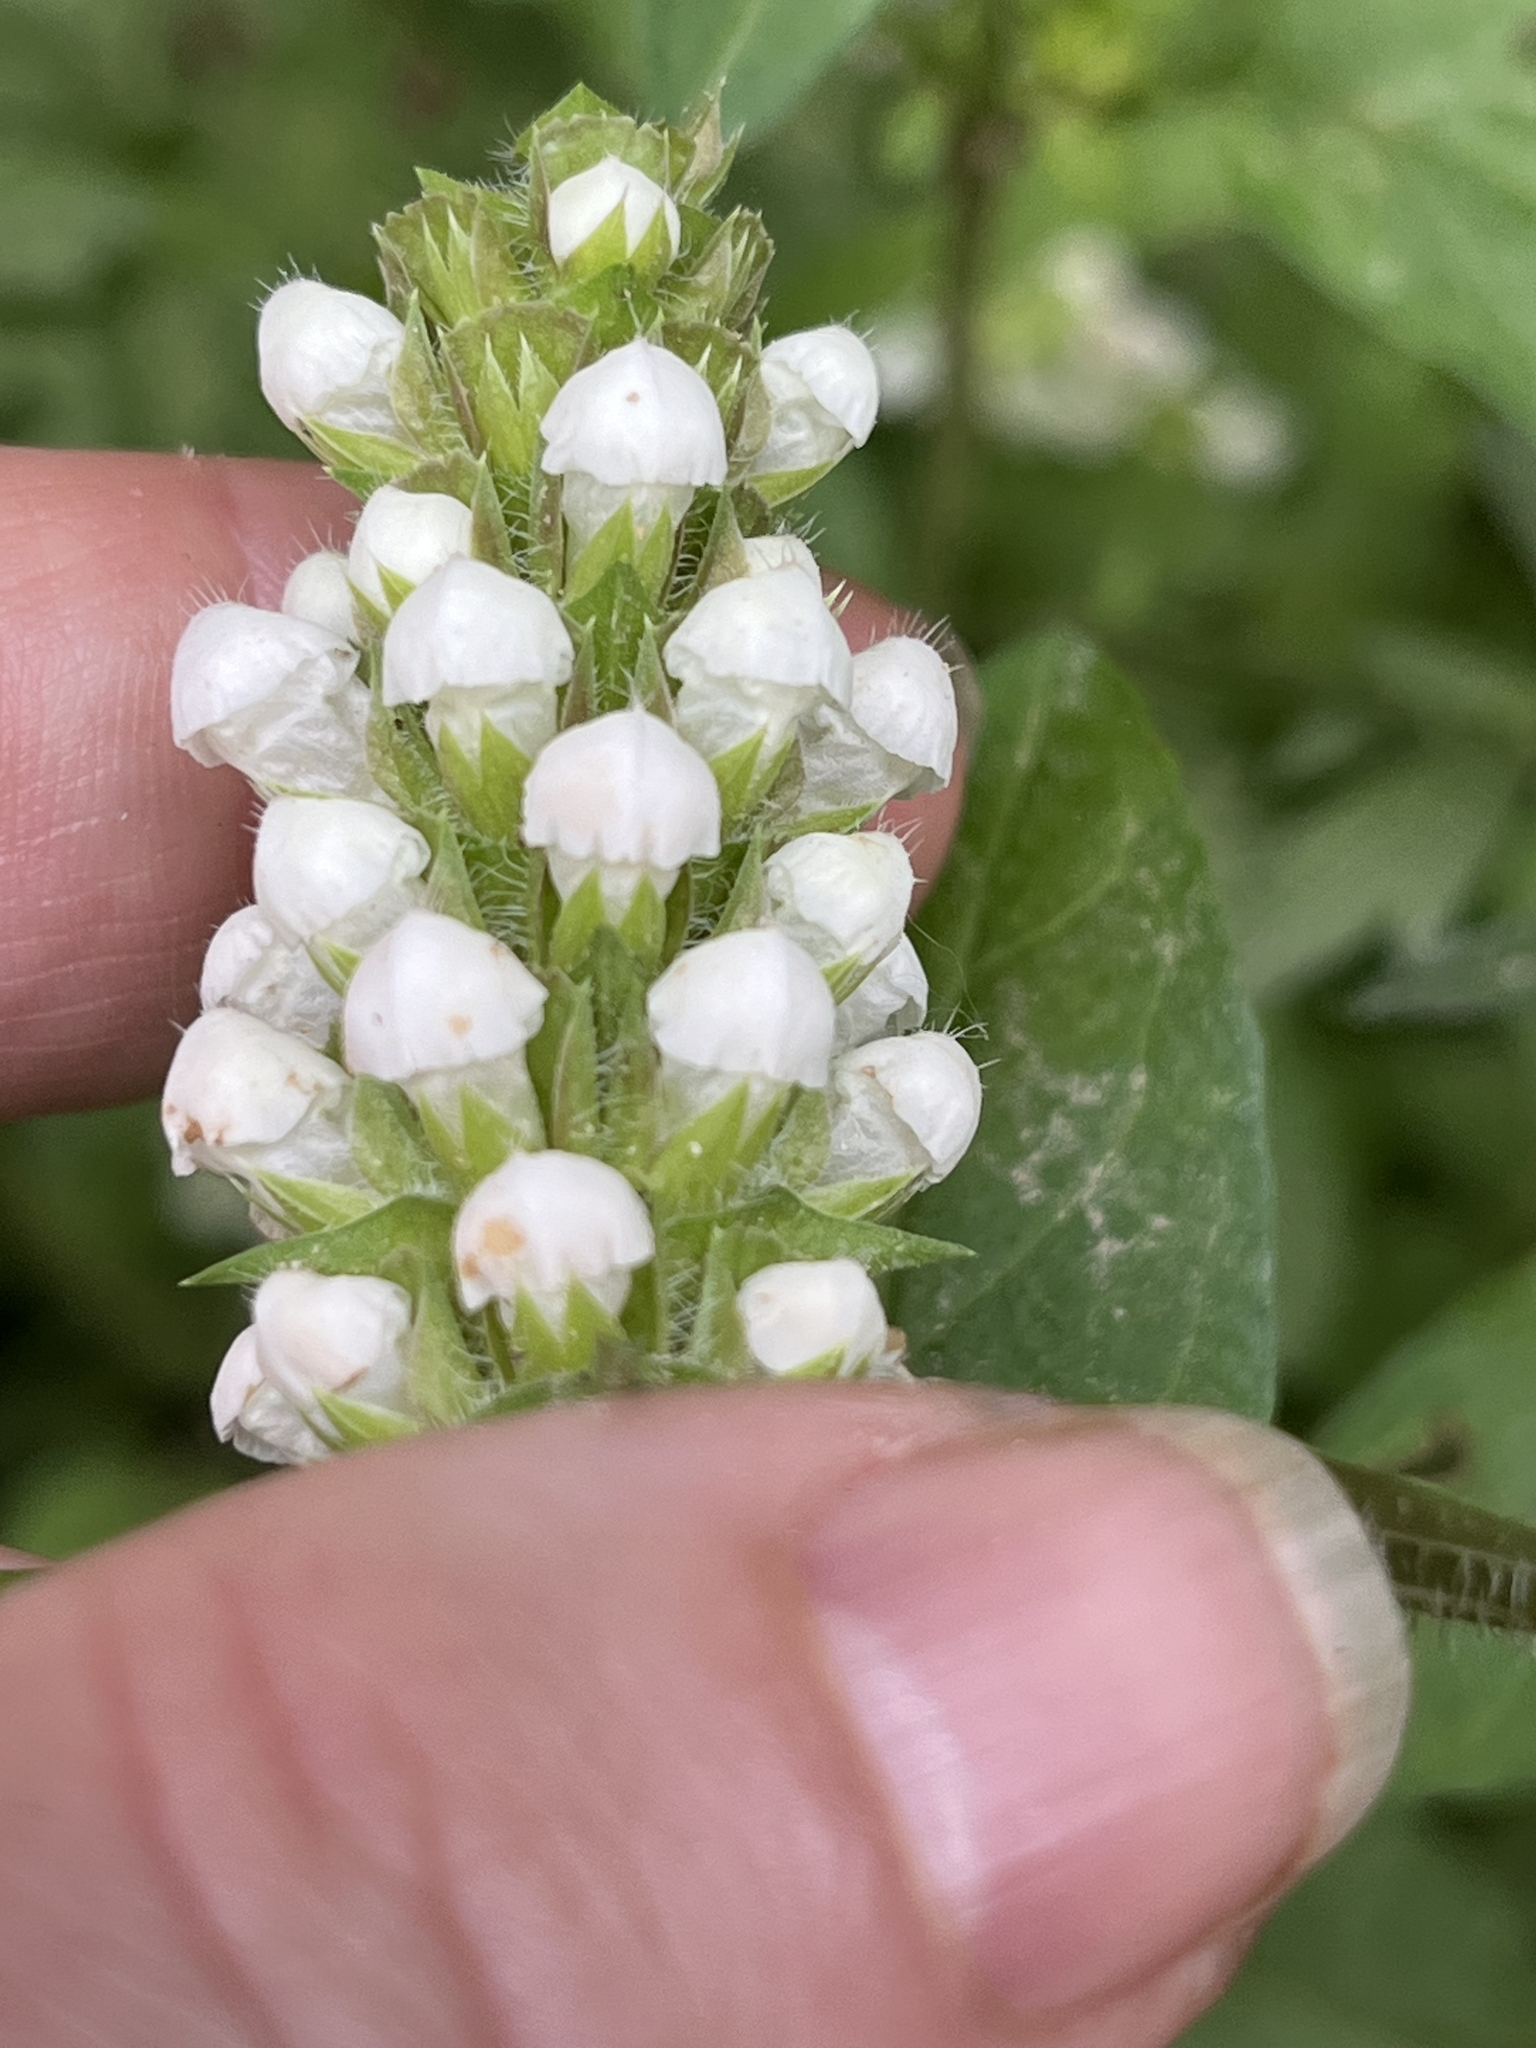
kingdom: Plantae
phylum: Tracheophyta
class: Magnoliopsida
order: Lamiales
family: Lamiaceae
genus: Prunella
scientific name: Prunella vulgaris
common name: Heal-all
